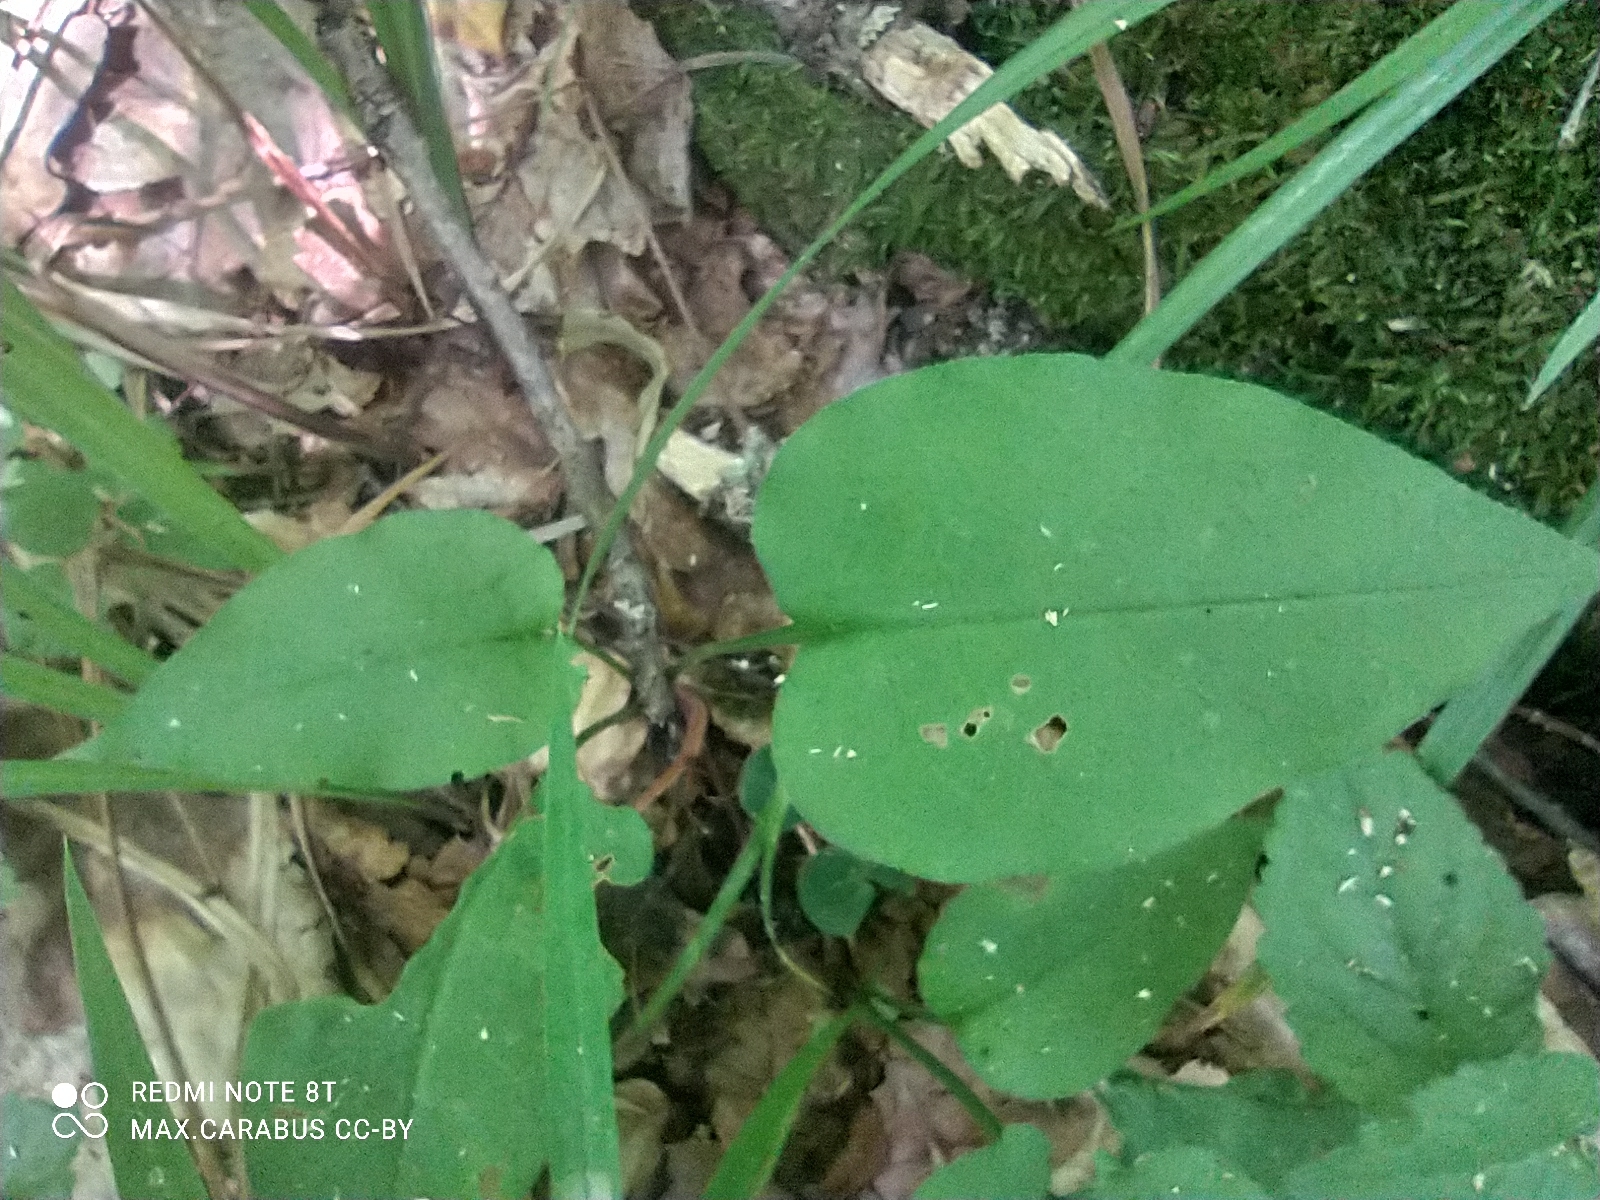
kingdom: Plantae
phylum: Tracheophyta
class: Magnoliopsida
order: Boraginales
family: Boraginaceae
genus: Pulmonaria
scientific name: Pulmonaria obscura
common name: Suffolk lungwort
